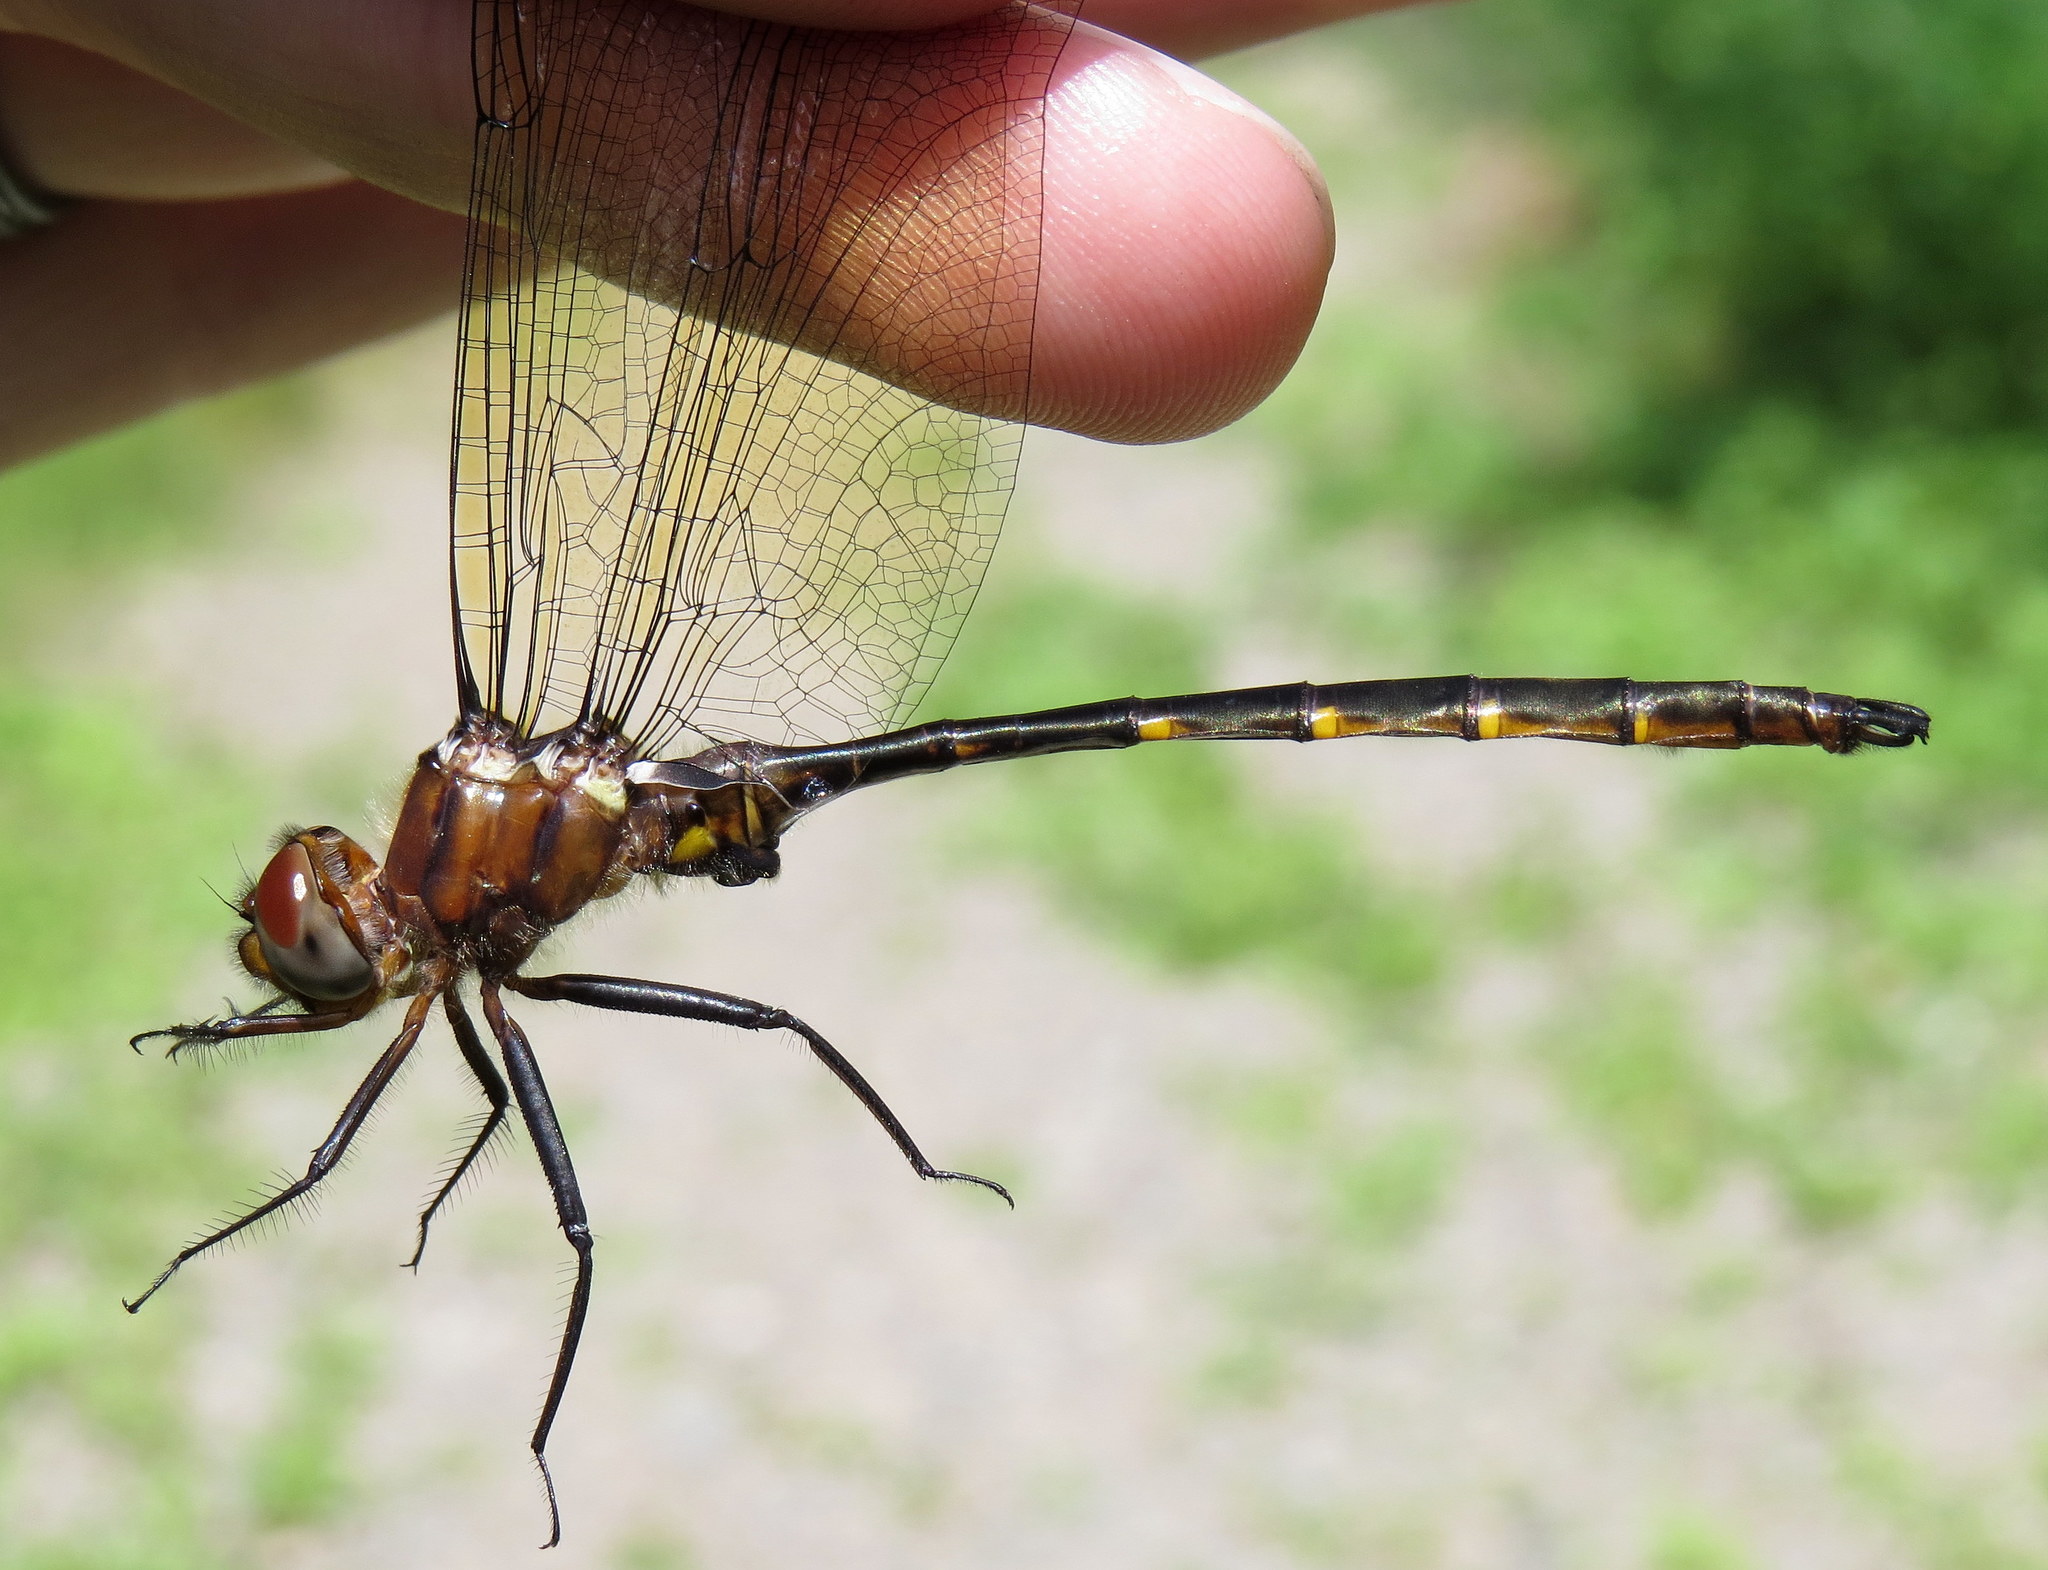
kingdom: Animalia
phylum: Arthropoda
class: Insecta
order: Odonata
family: Corduliidae
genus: Somatochlora
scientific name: Somatochlora linearis
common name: Mocha emerald
